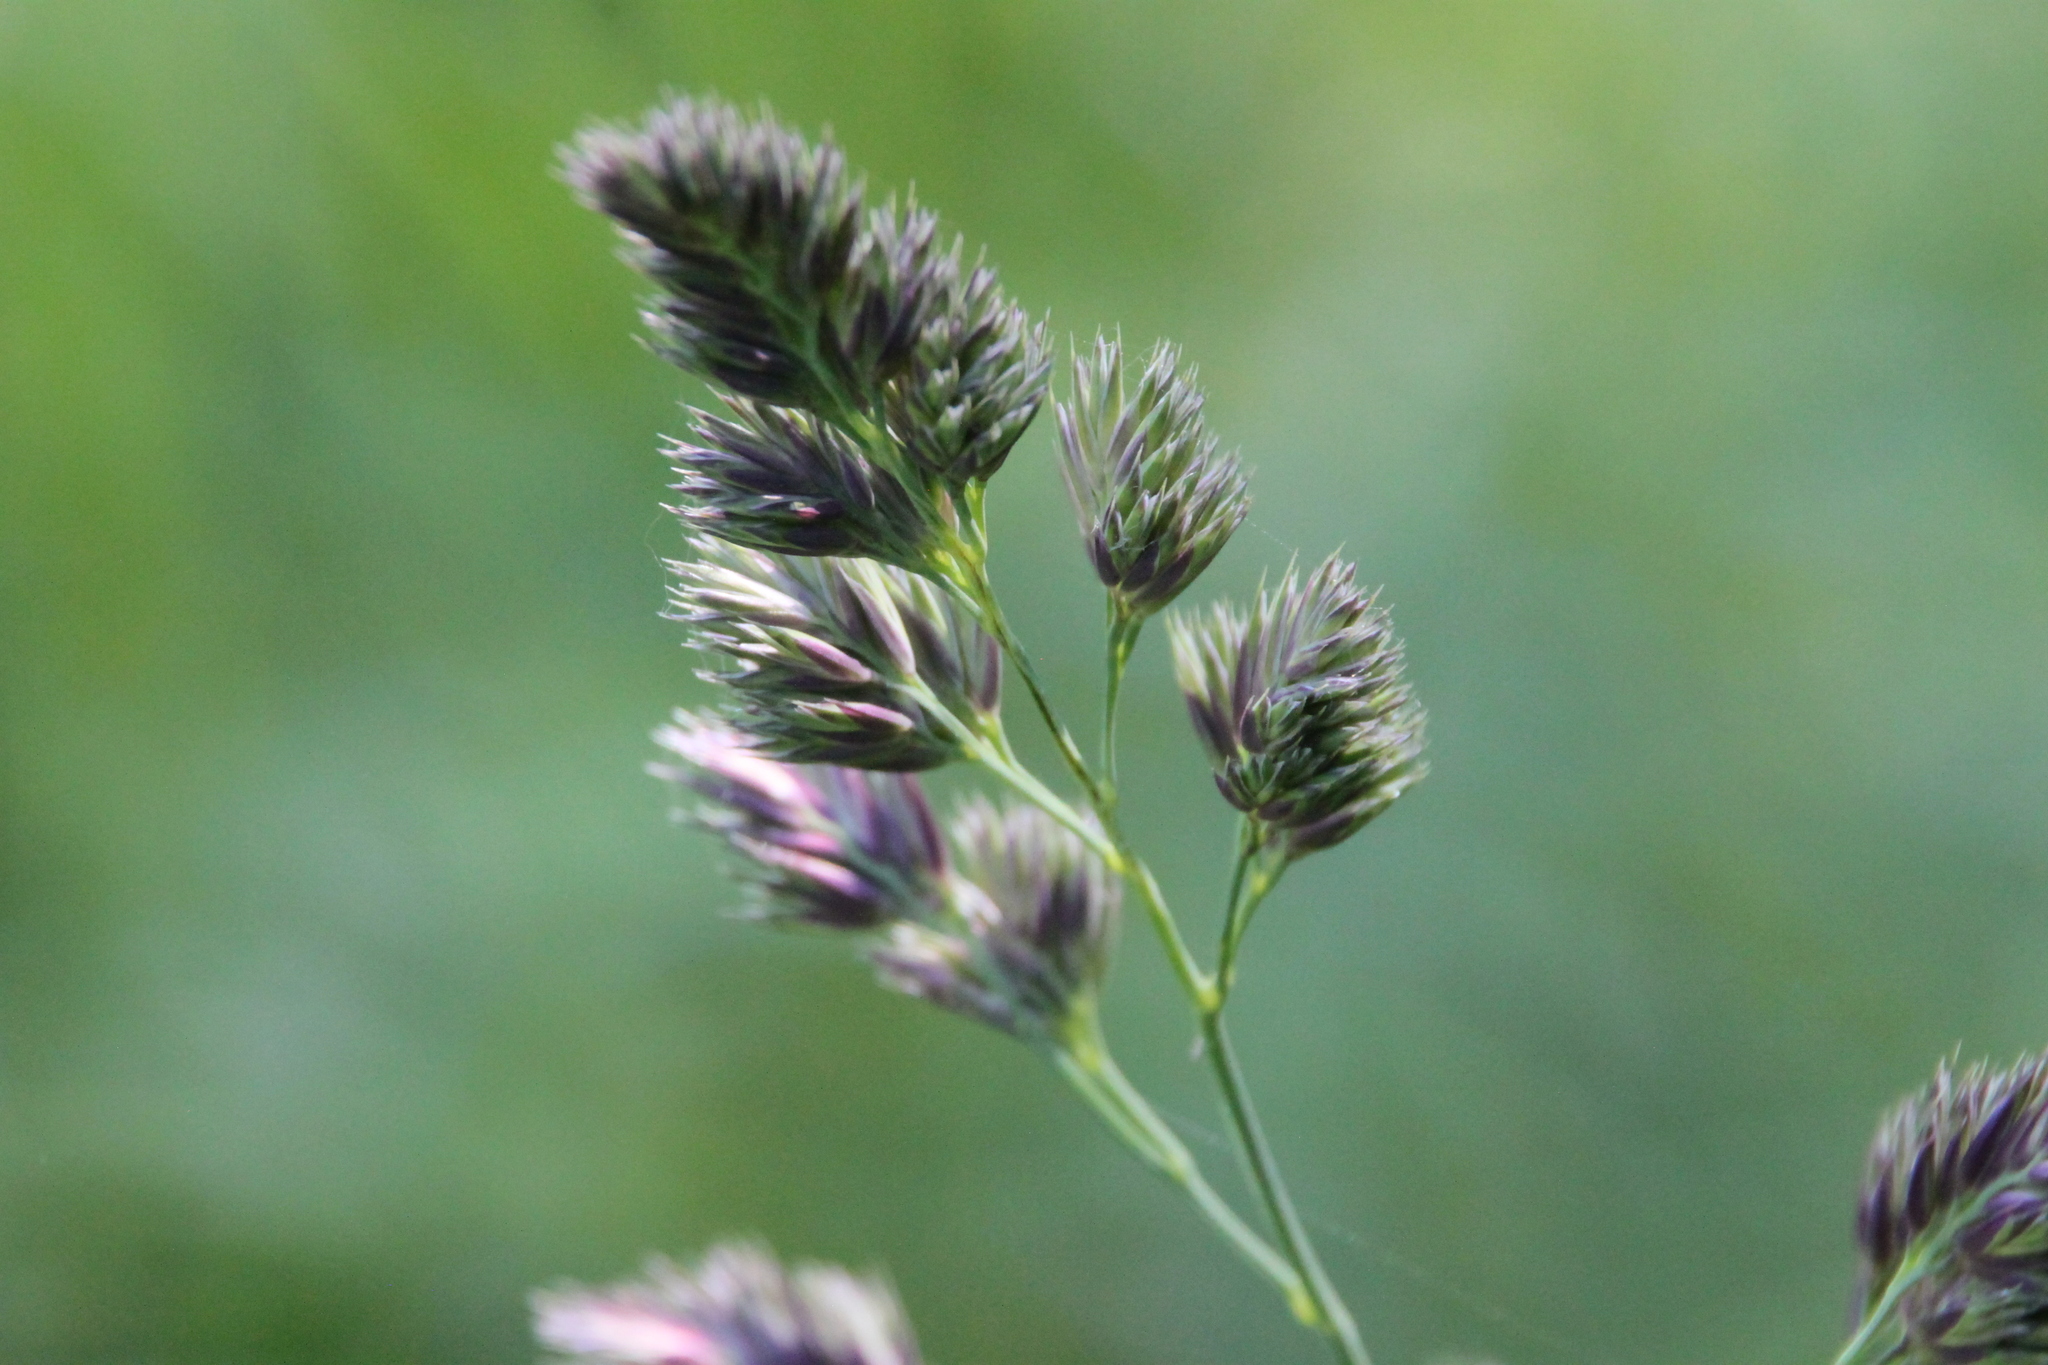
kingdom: Plantae
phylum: Tracheophyta
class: Liliopsida
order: Poales
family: Poaceae
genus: Dactylis
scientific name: Dactylis glomerata
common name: Orchardgrass
